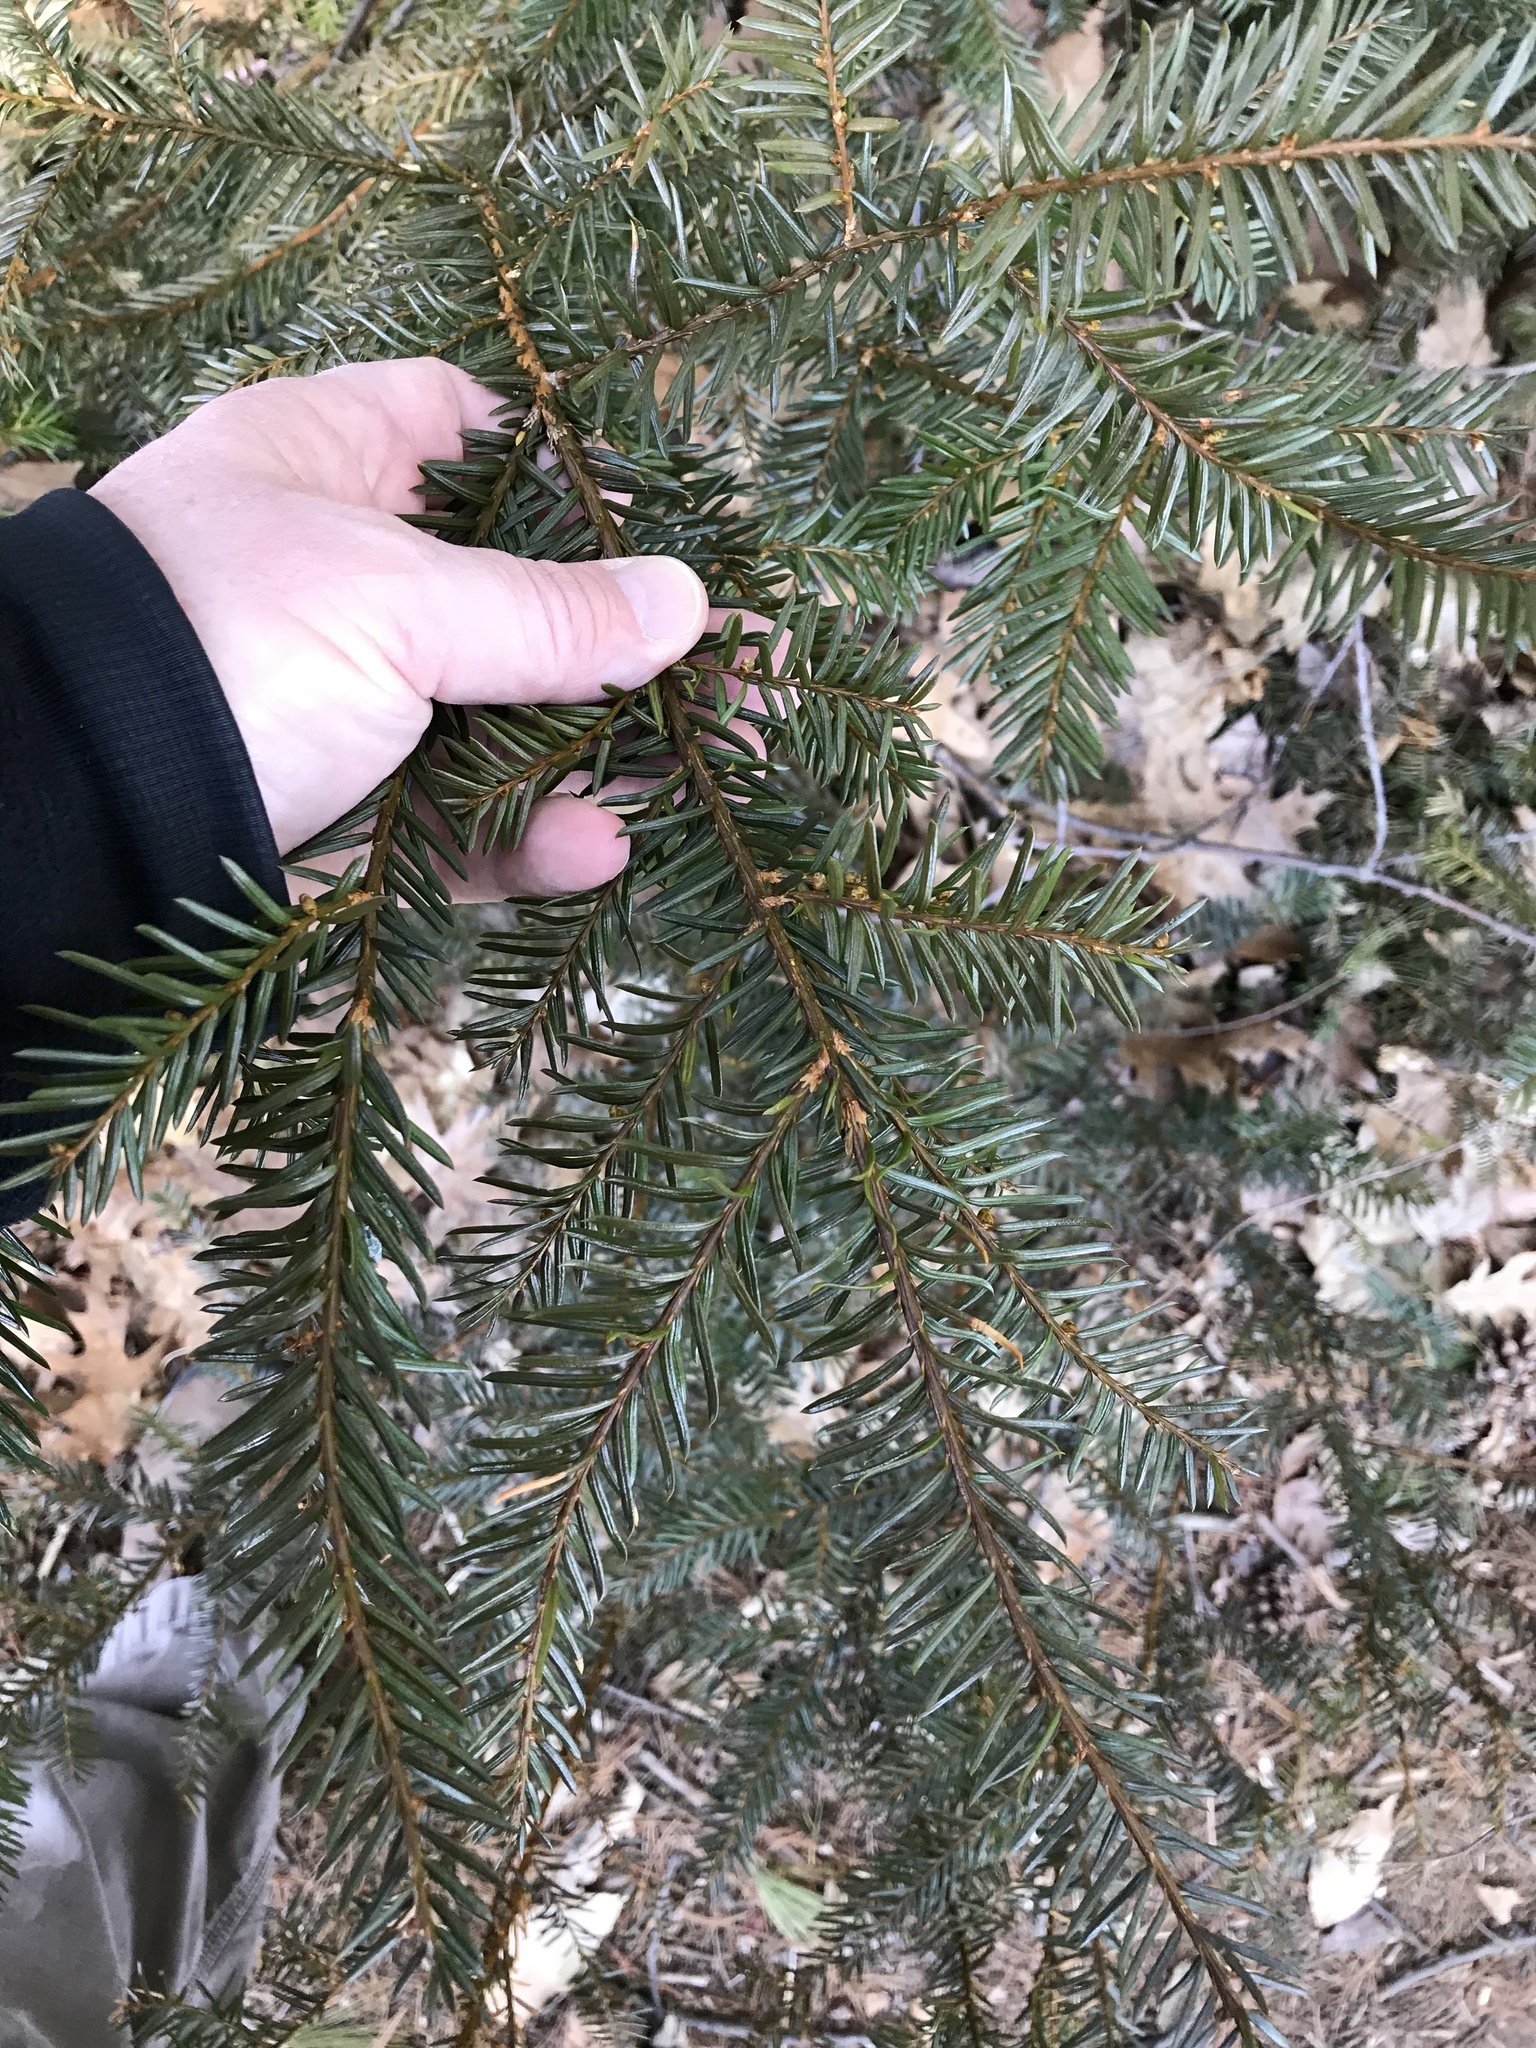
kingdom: Plantae
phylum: Tracheophyta
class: Pinopsida
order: Pinales
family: Taxaceae
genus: Taxus
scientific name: Taxus canadensis
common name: American yew
